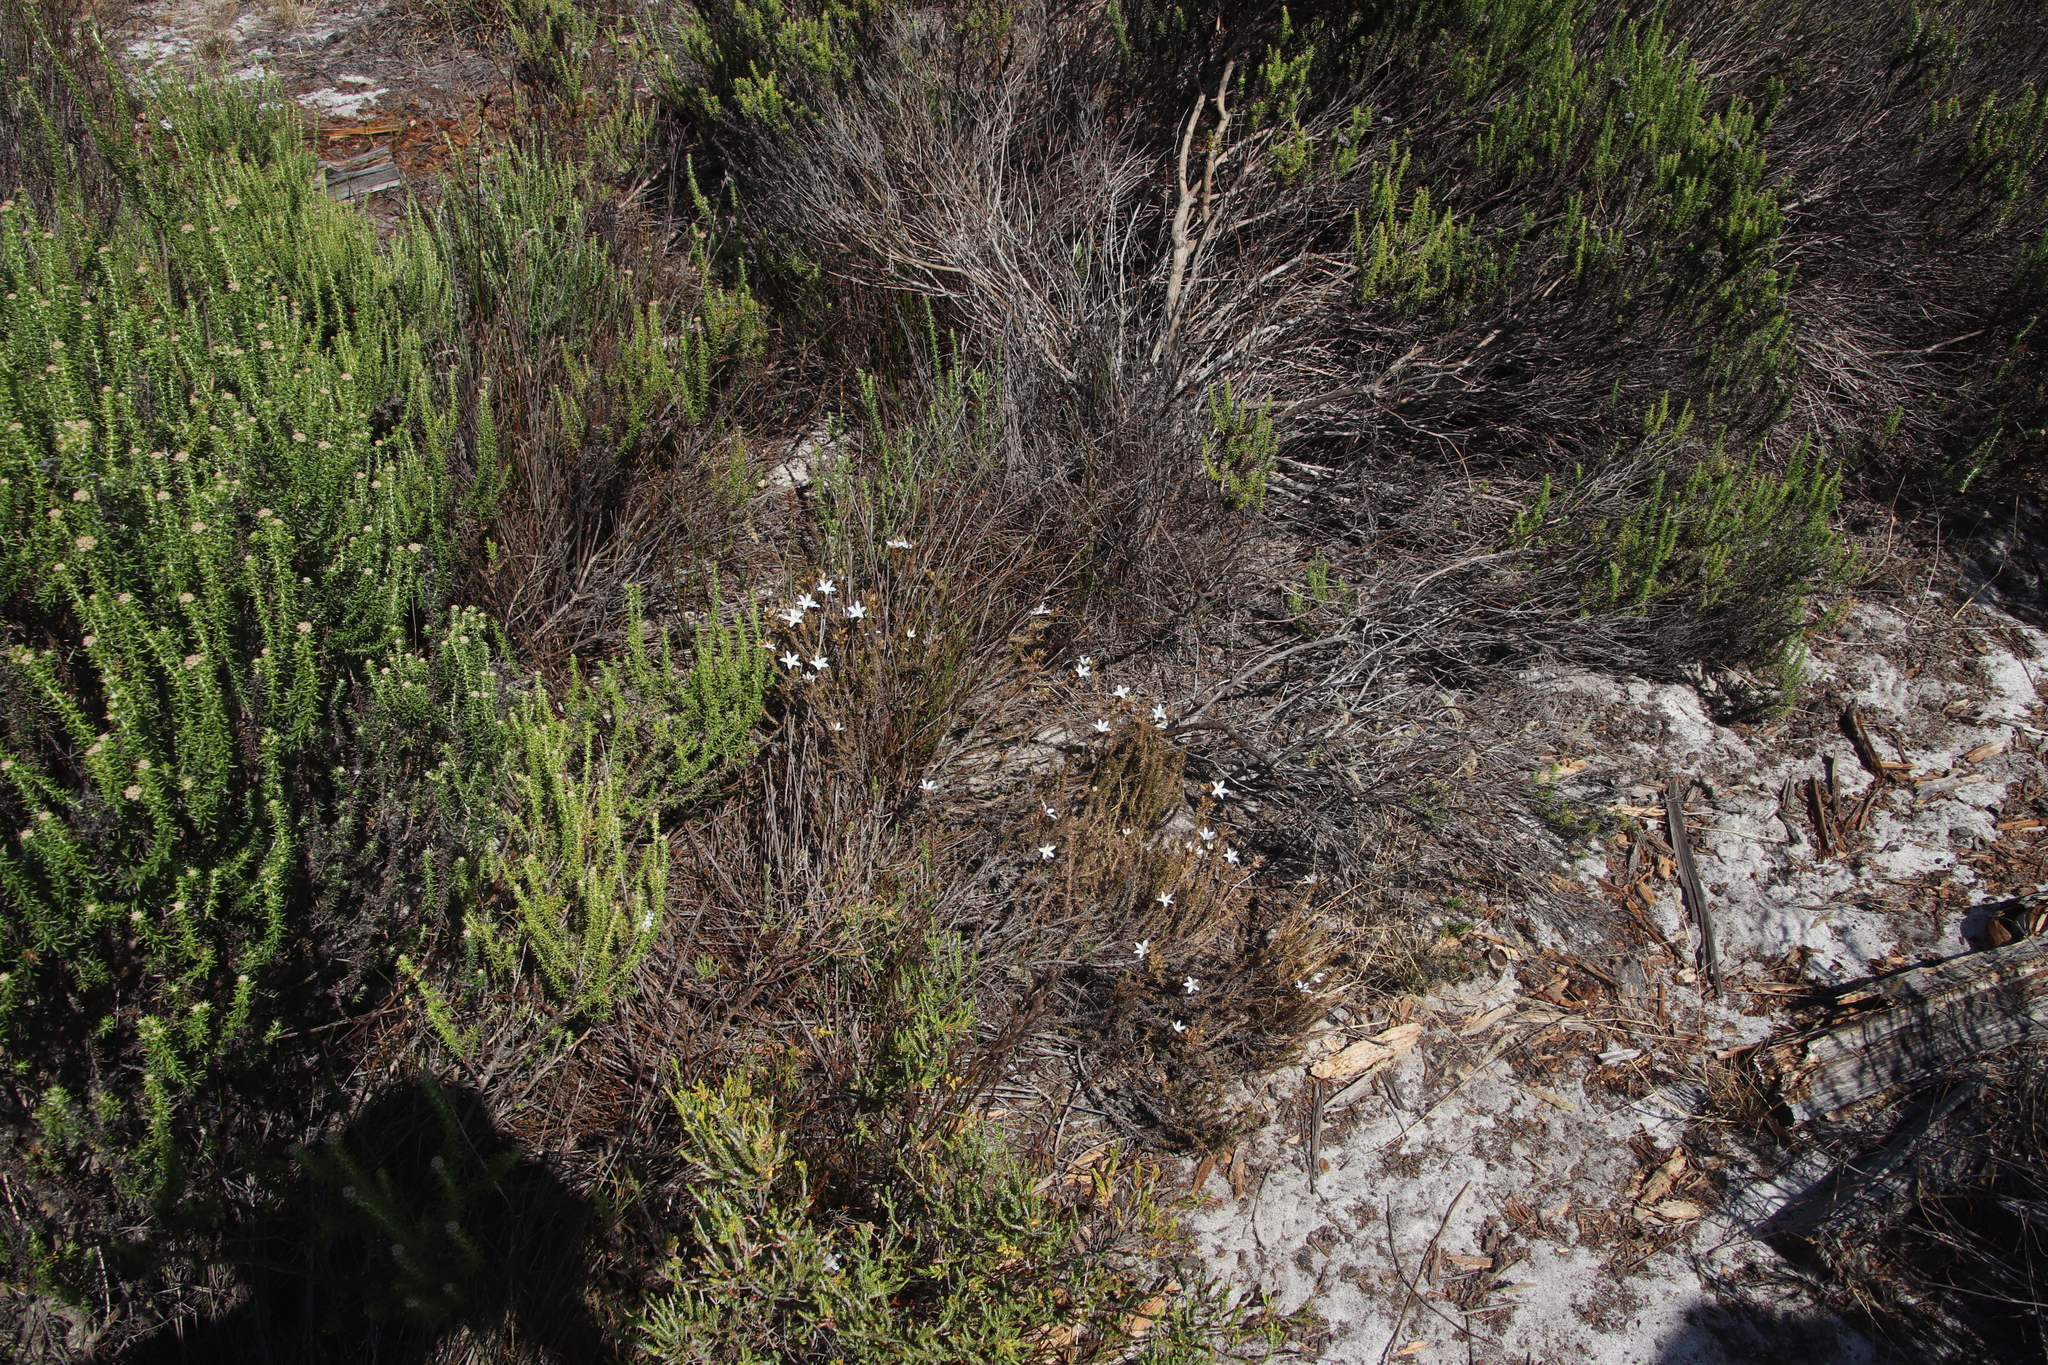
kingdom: Plantae
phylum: Tracheophyta
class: Magnoliopsida
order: Asterales
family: Campanulaceae
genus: Roella
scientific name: Roella prostrata
